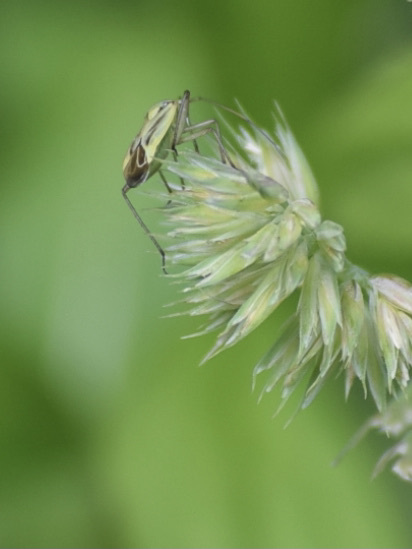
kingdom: Animalia
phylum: Arthropoda
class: Insecta
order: Hemiptera
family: Miridae
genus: Stenotus
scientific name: Stenotus binotatus
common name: Plant bug
